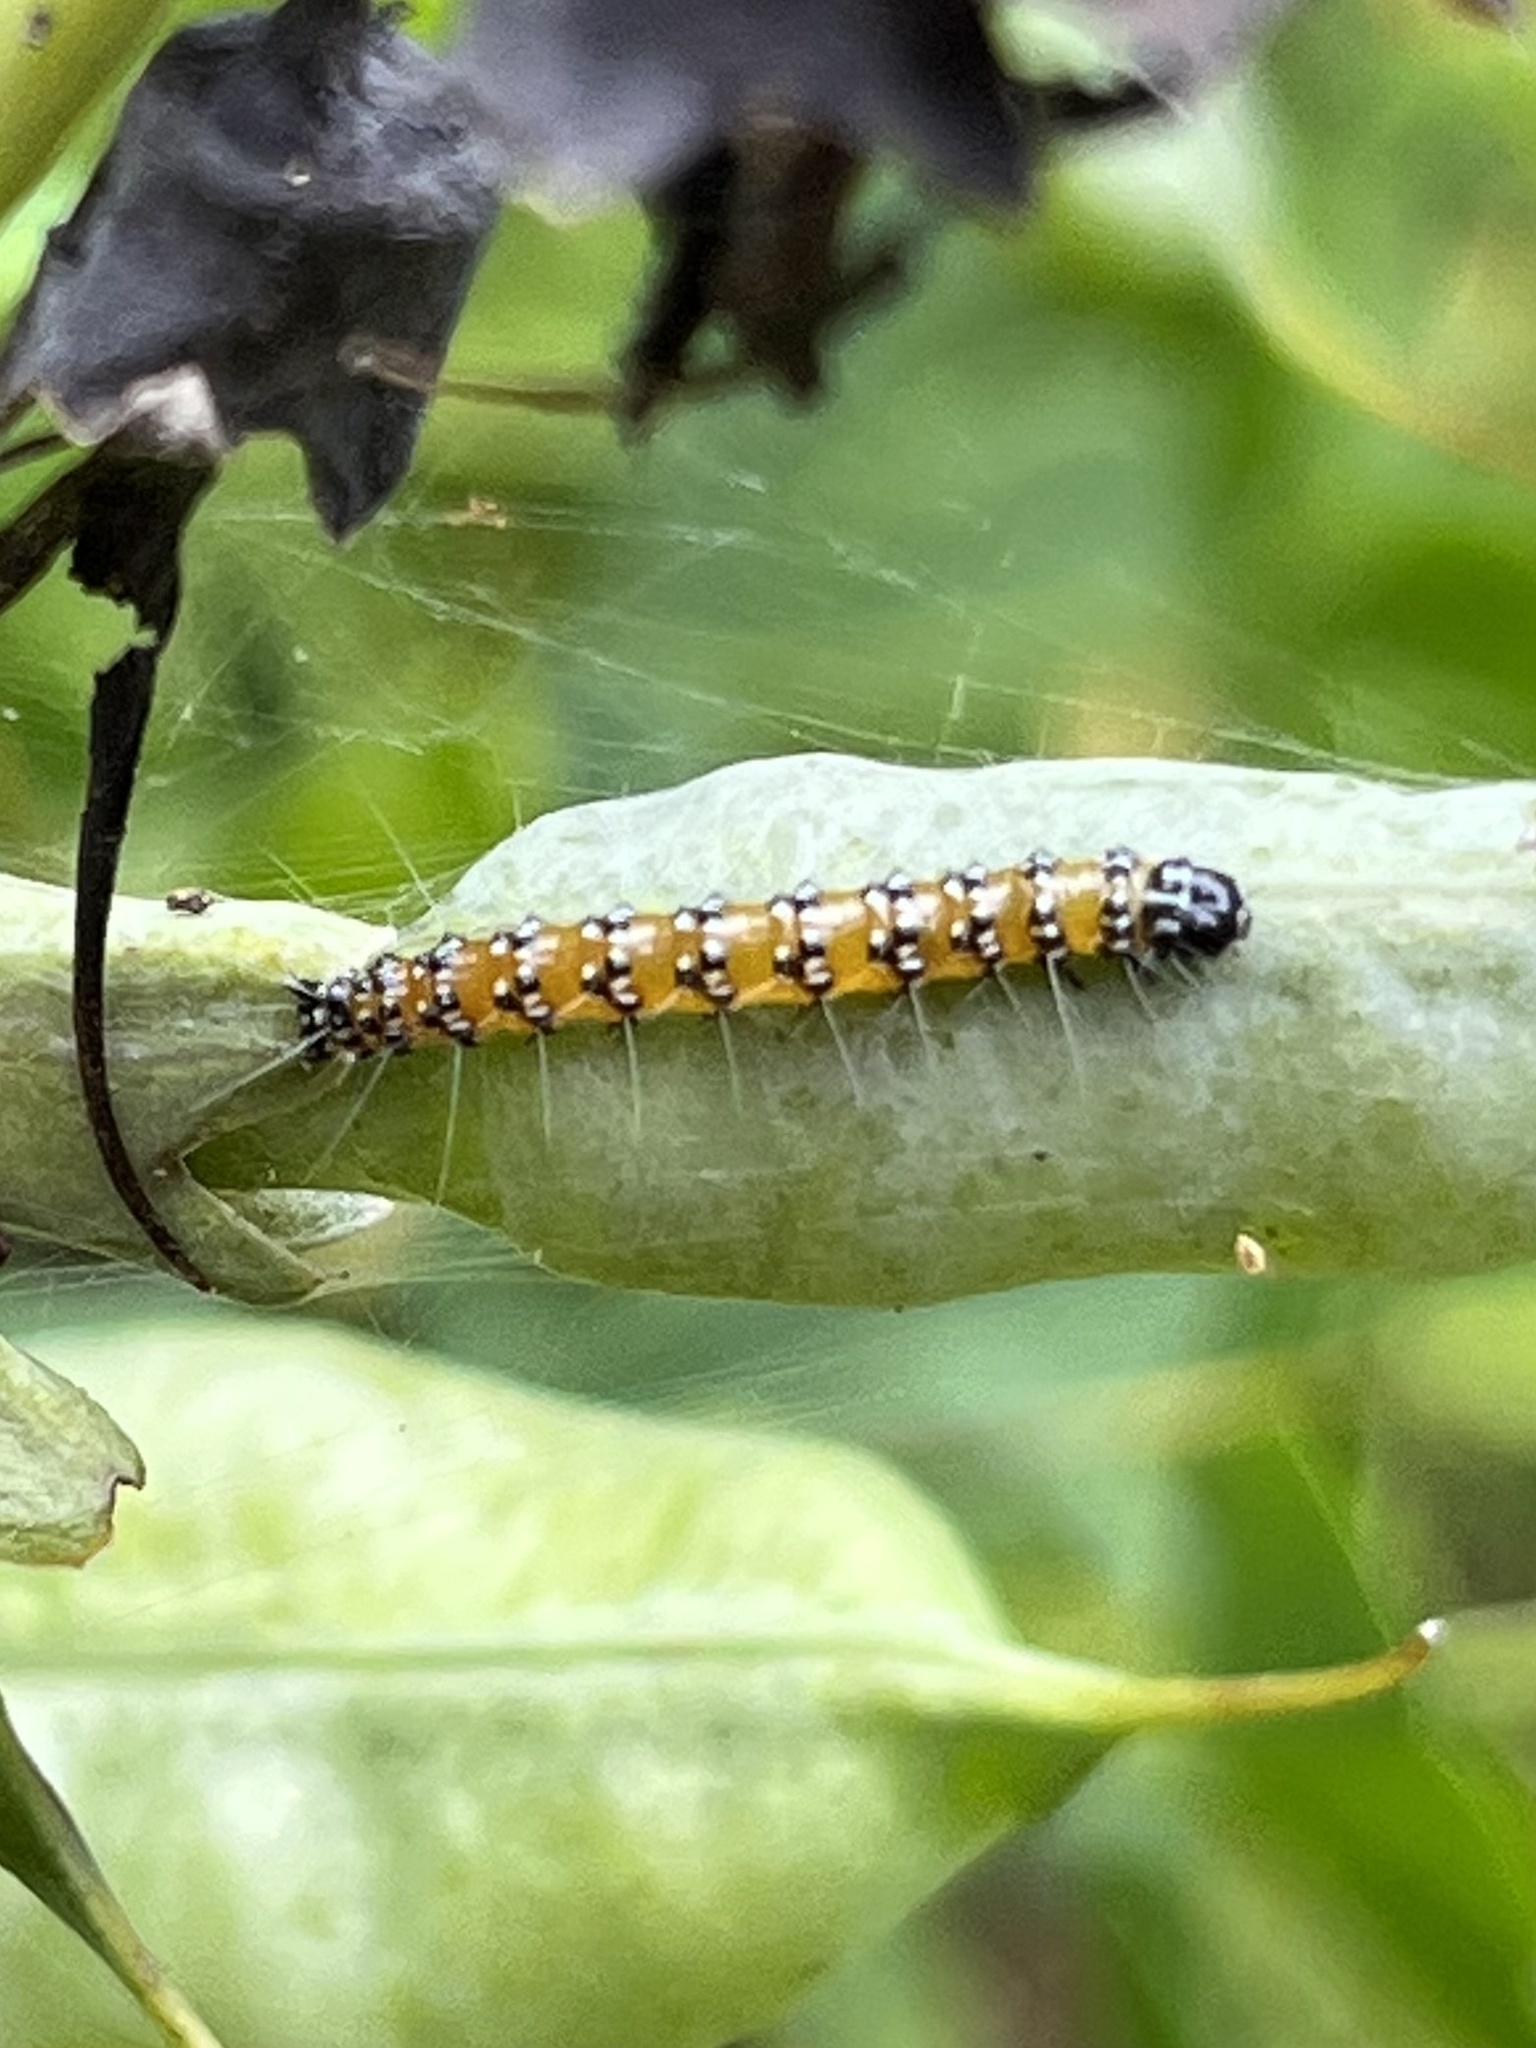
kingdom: Animalia
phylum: Arthropoda
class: Insecta
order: Lepidoptera
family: Crambidae
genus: Uresiphita
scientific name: Uresiphita reversalis
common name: Genista broom moth
